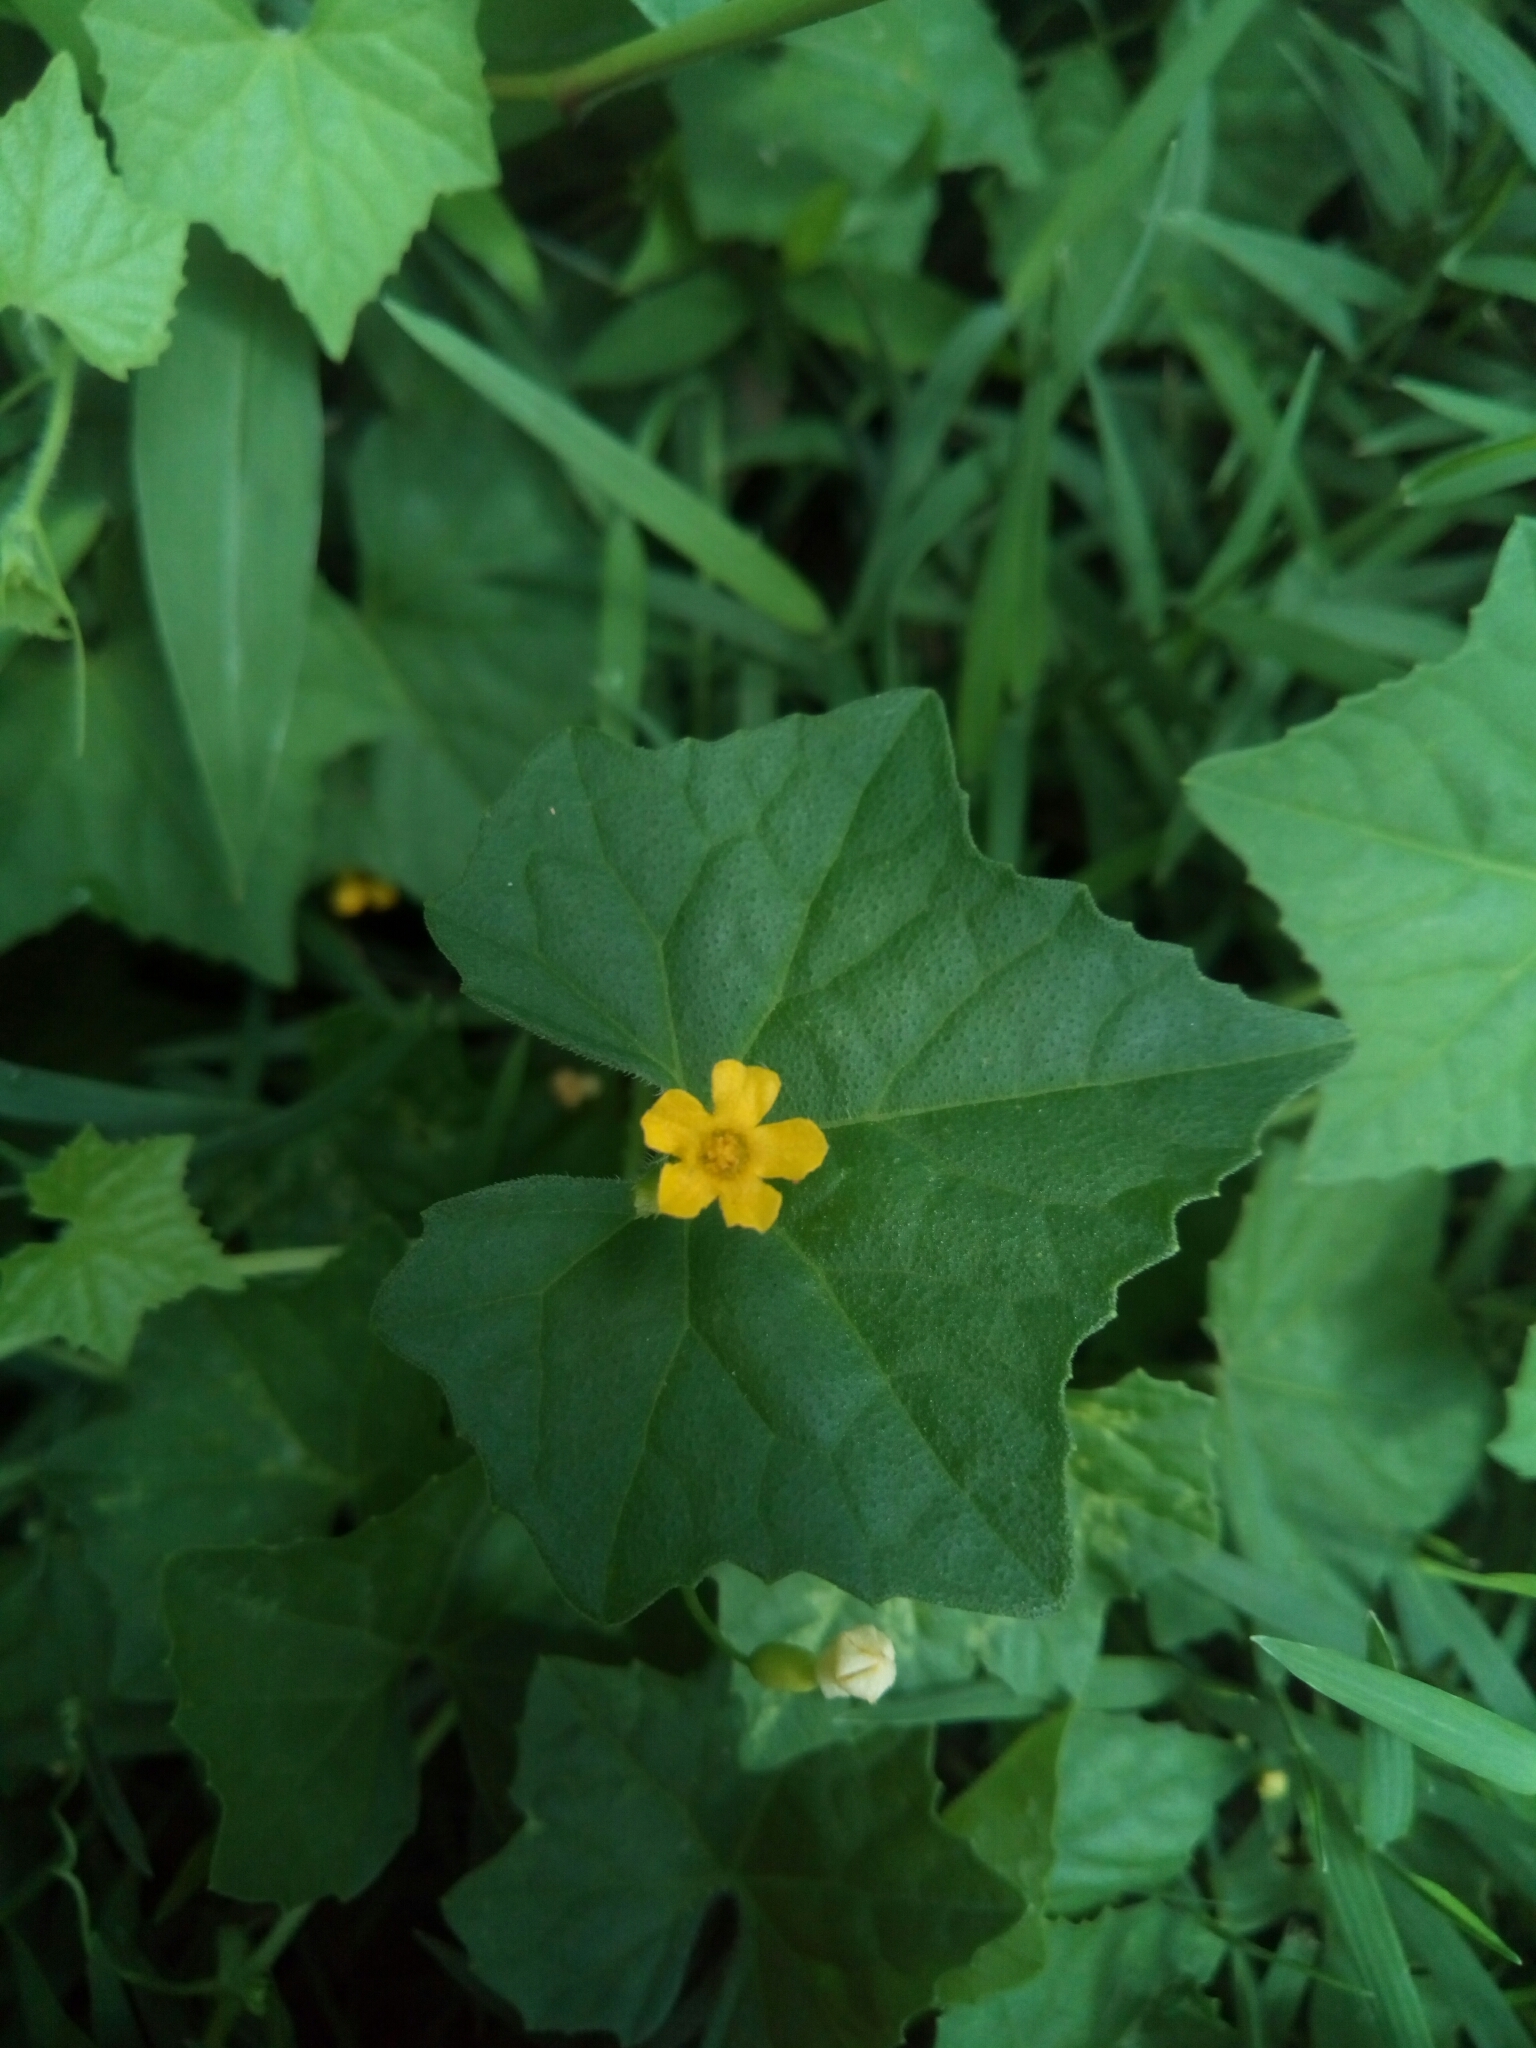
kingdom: Plantae
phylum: Tracheophyta
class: Magnoliopsida
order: Cucurbitales
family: Cucurbitaceae
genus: Melothria
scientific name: Melothria pendula
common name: Creeping-cucumber
